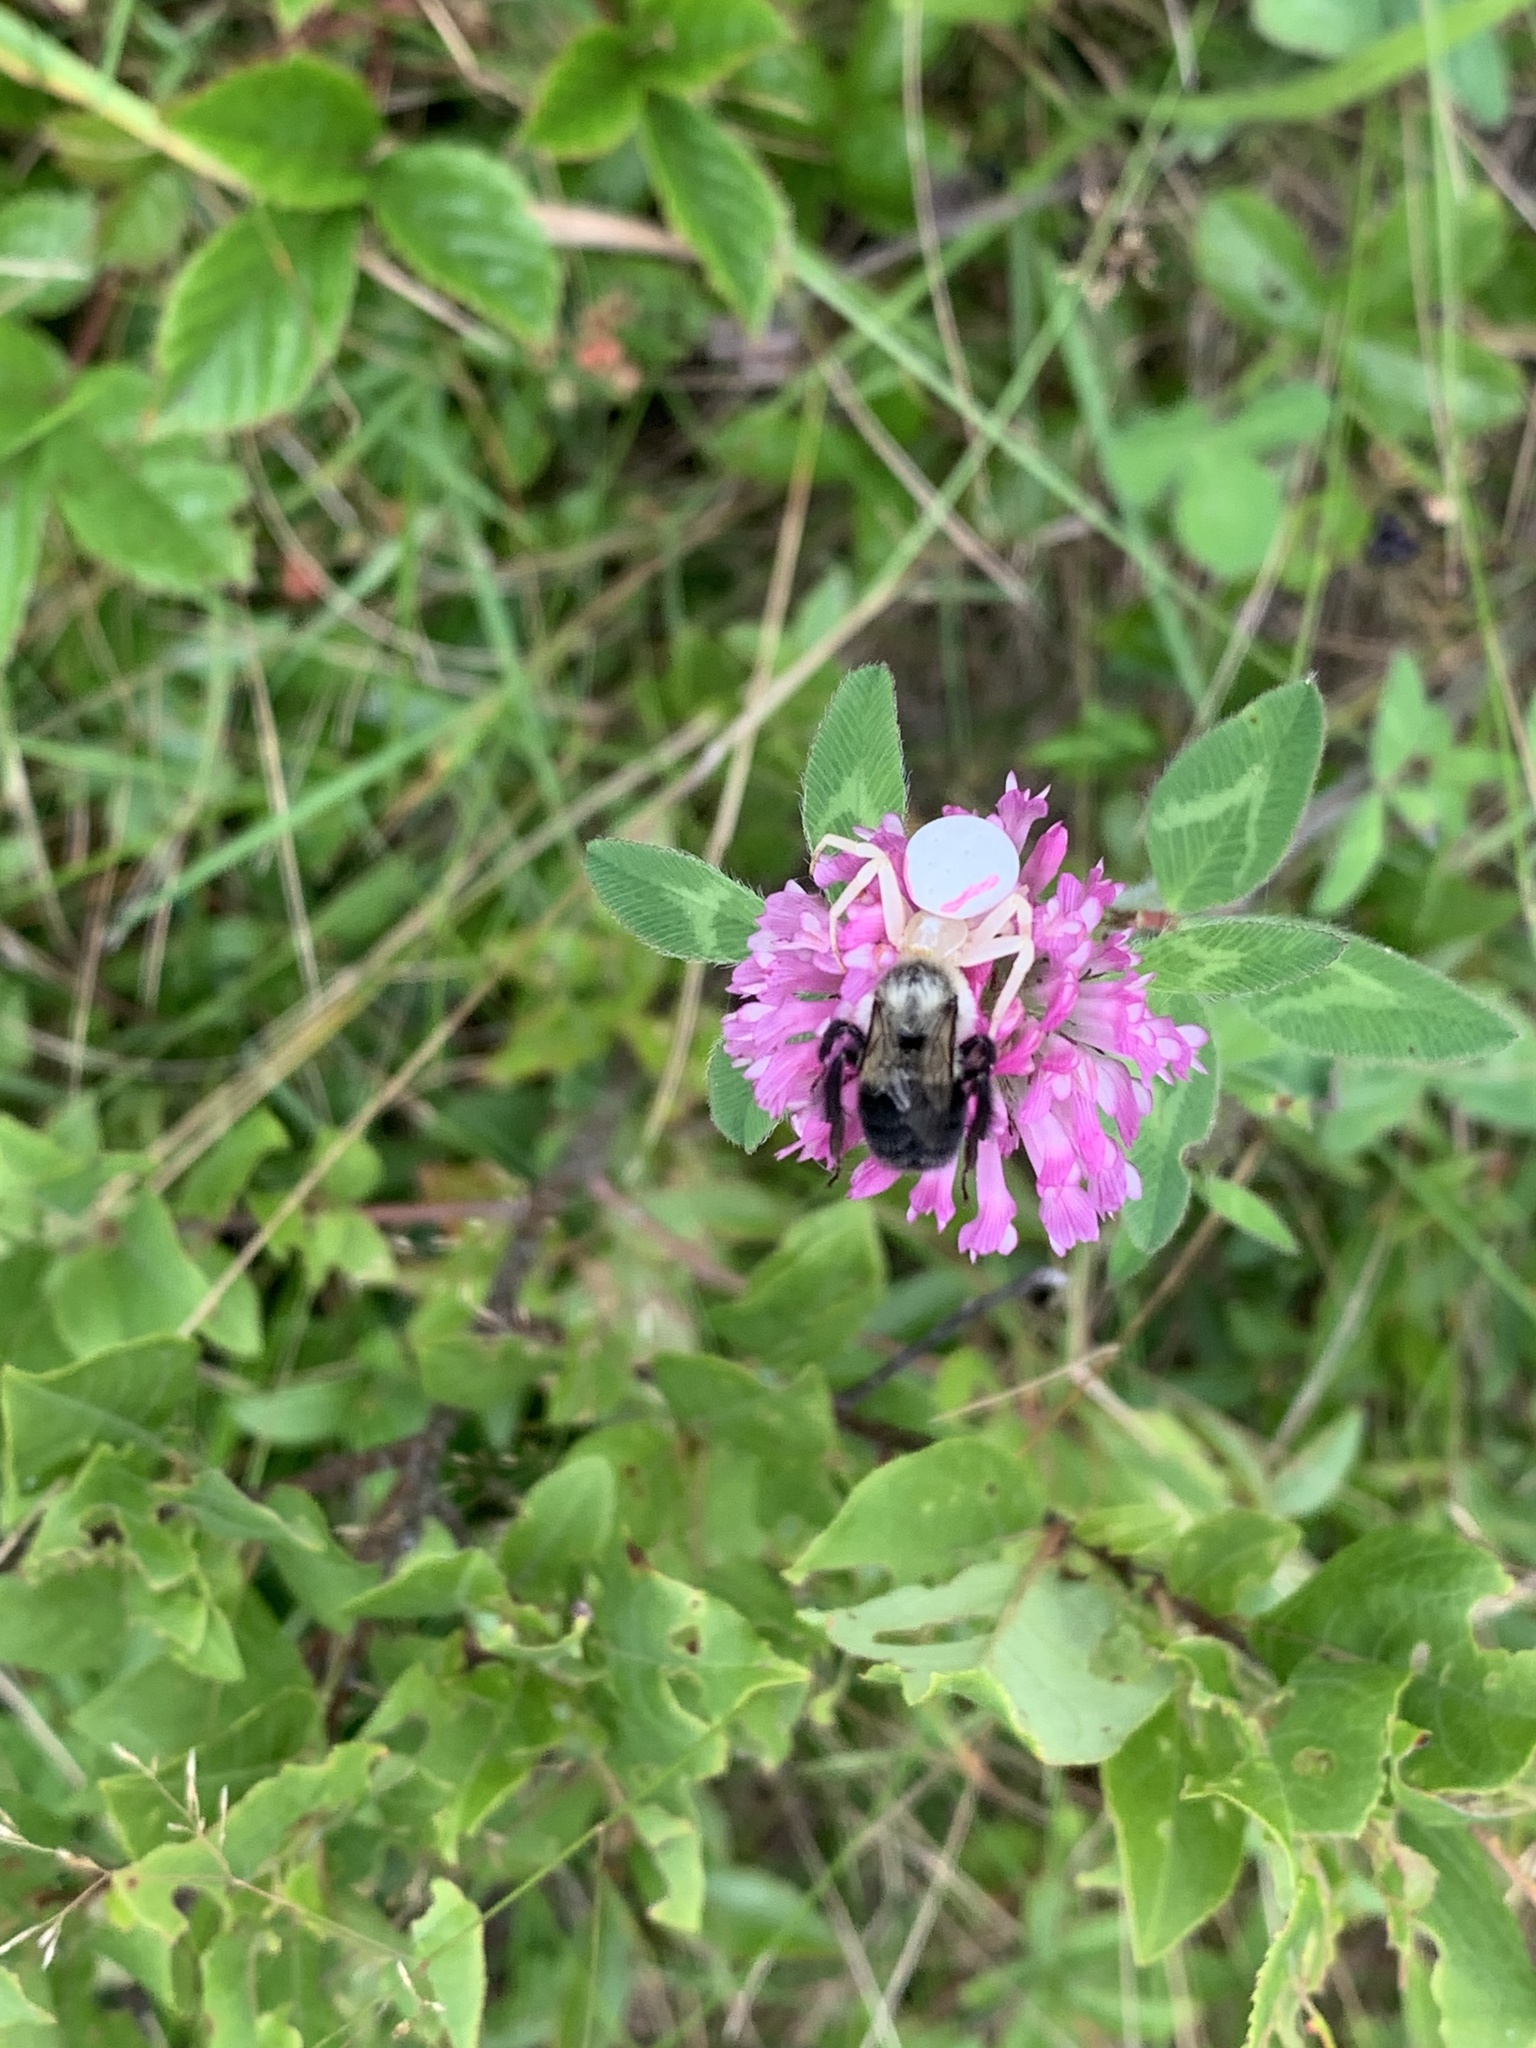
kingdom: Animalia
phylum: Arthropoda
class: Arachnida
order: Araneae
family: Thomisidae
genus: Misumena
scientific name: Misumena vatia
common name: Goldenrod crab spider
